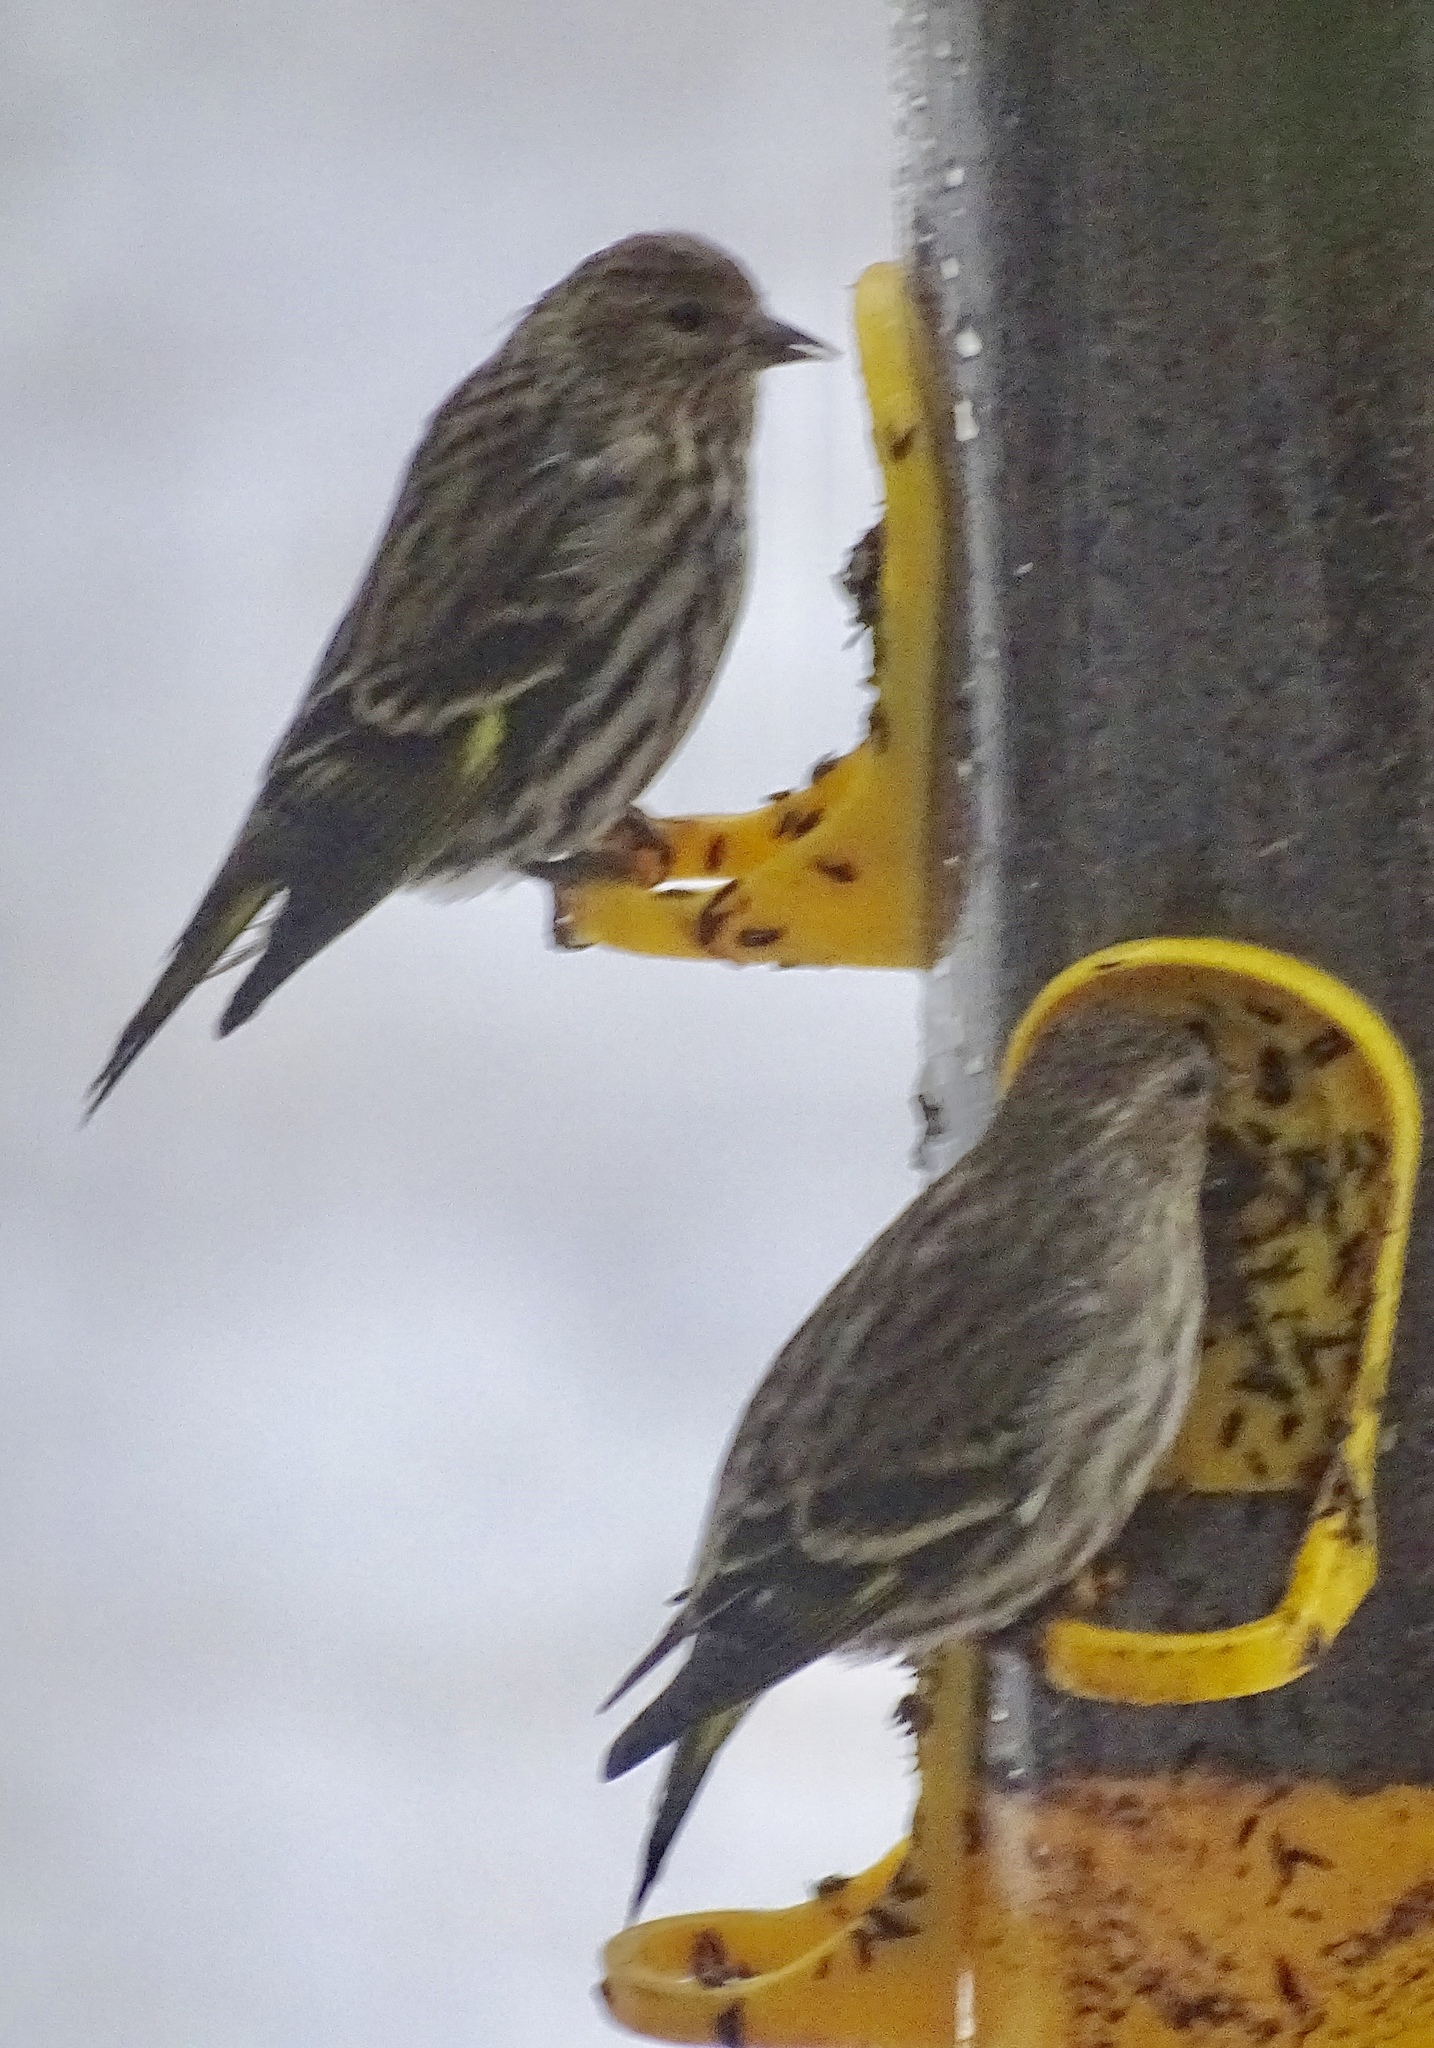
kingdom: Animalia
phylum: Chordata
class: Aves
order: Passeriformes
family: Fringillidae
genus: Spinus
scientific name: Spinus pinus
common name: Pine siskin
